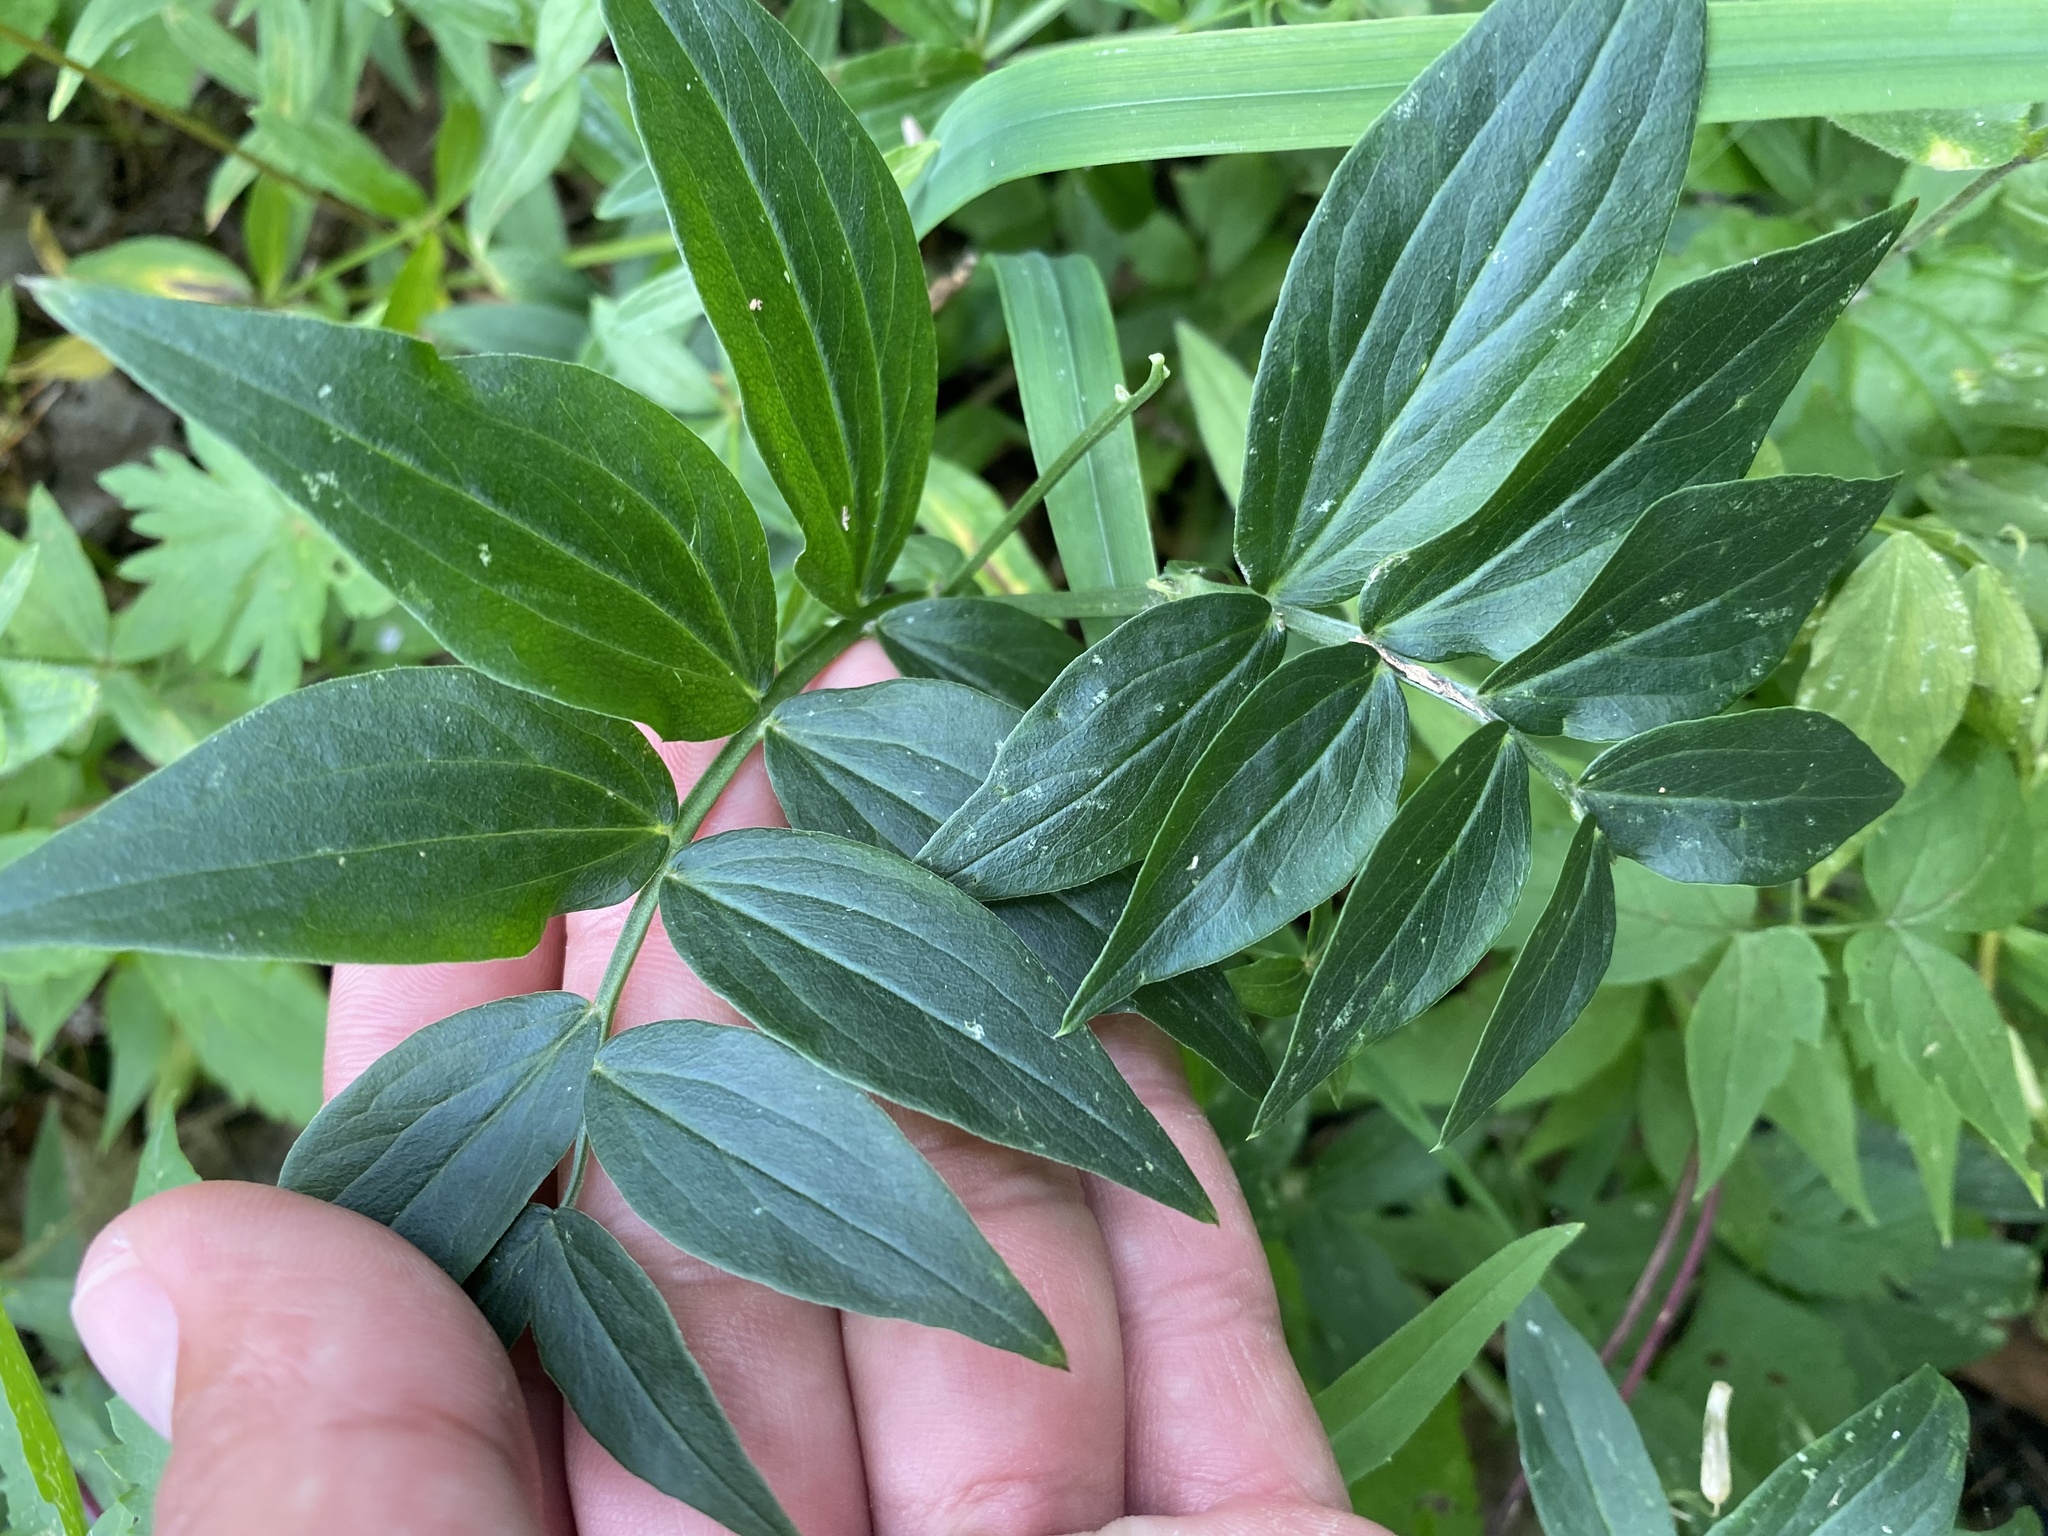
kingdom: Plantae
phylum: Tracheophyta
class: Magnoliopsida
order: Fabales
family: Fabaceae
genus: Lathyrus
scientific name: Lathyrus vernus
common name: Spring pea
